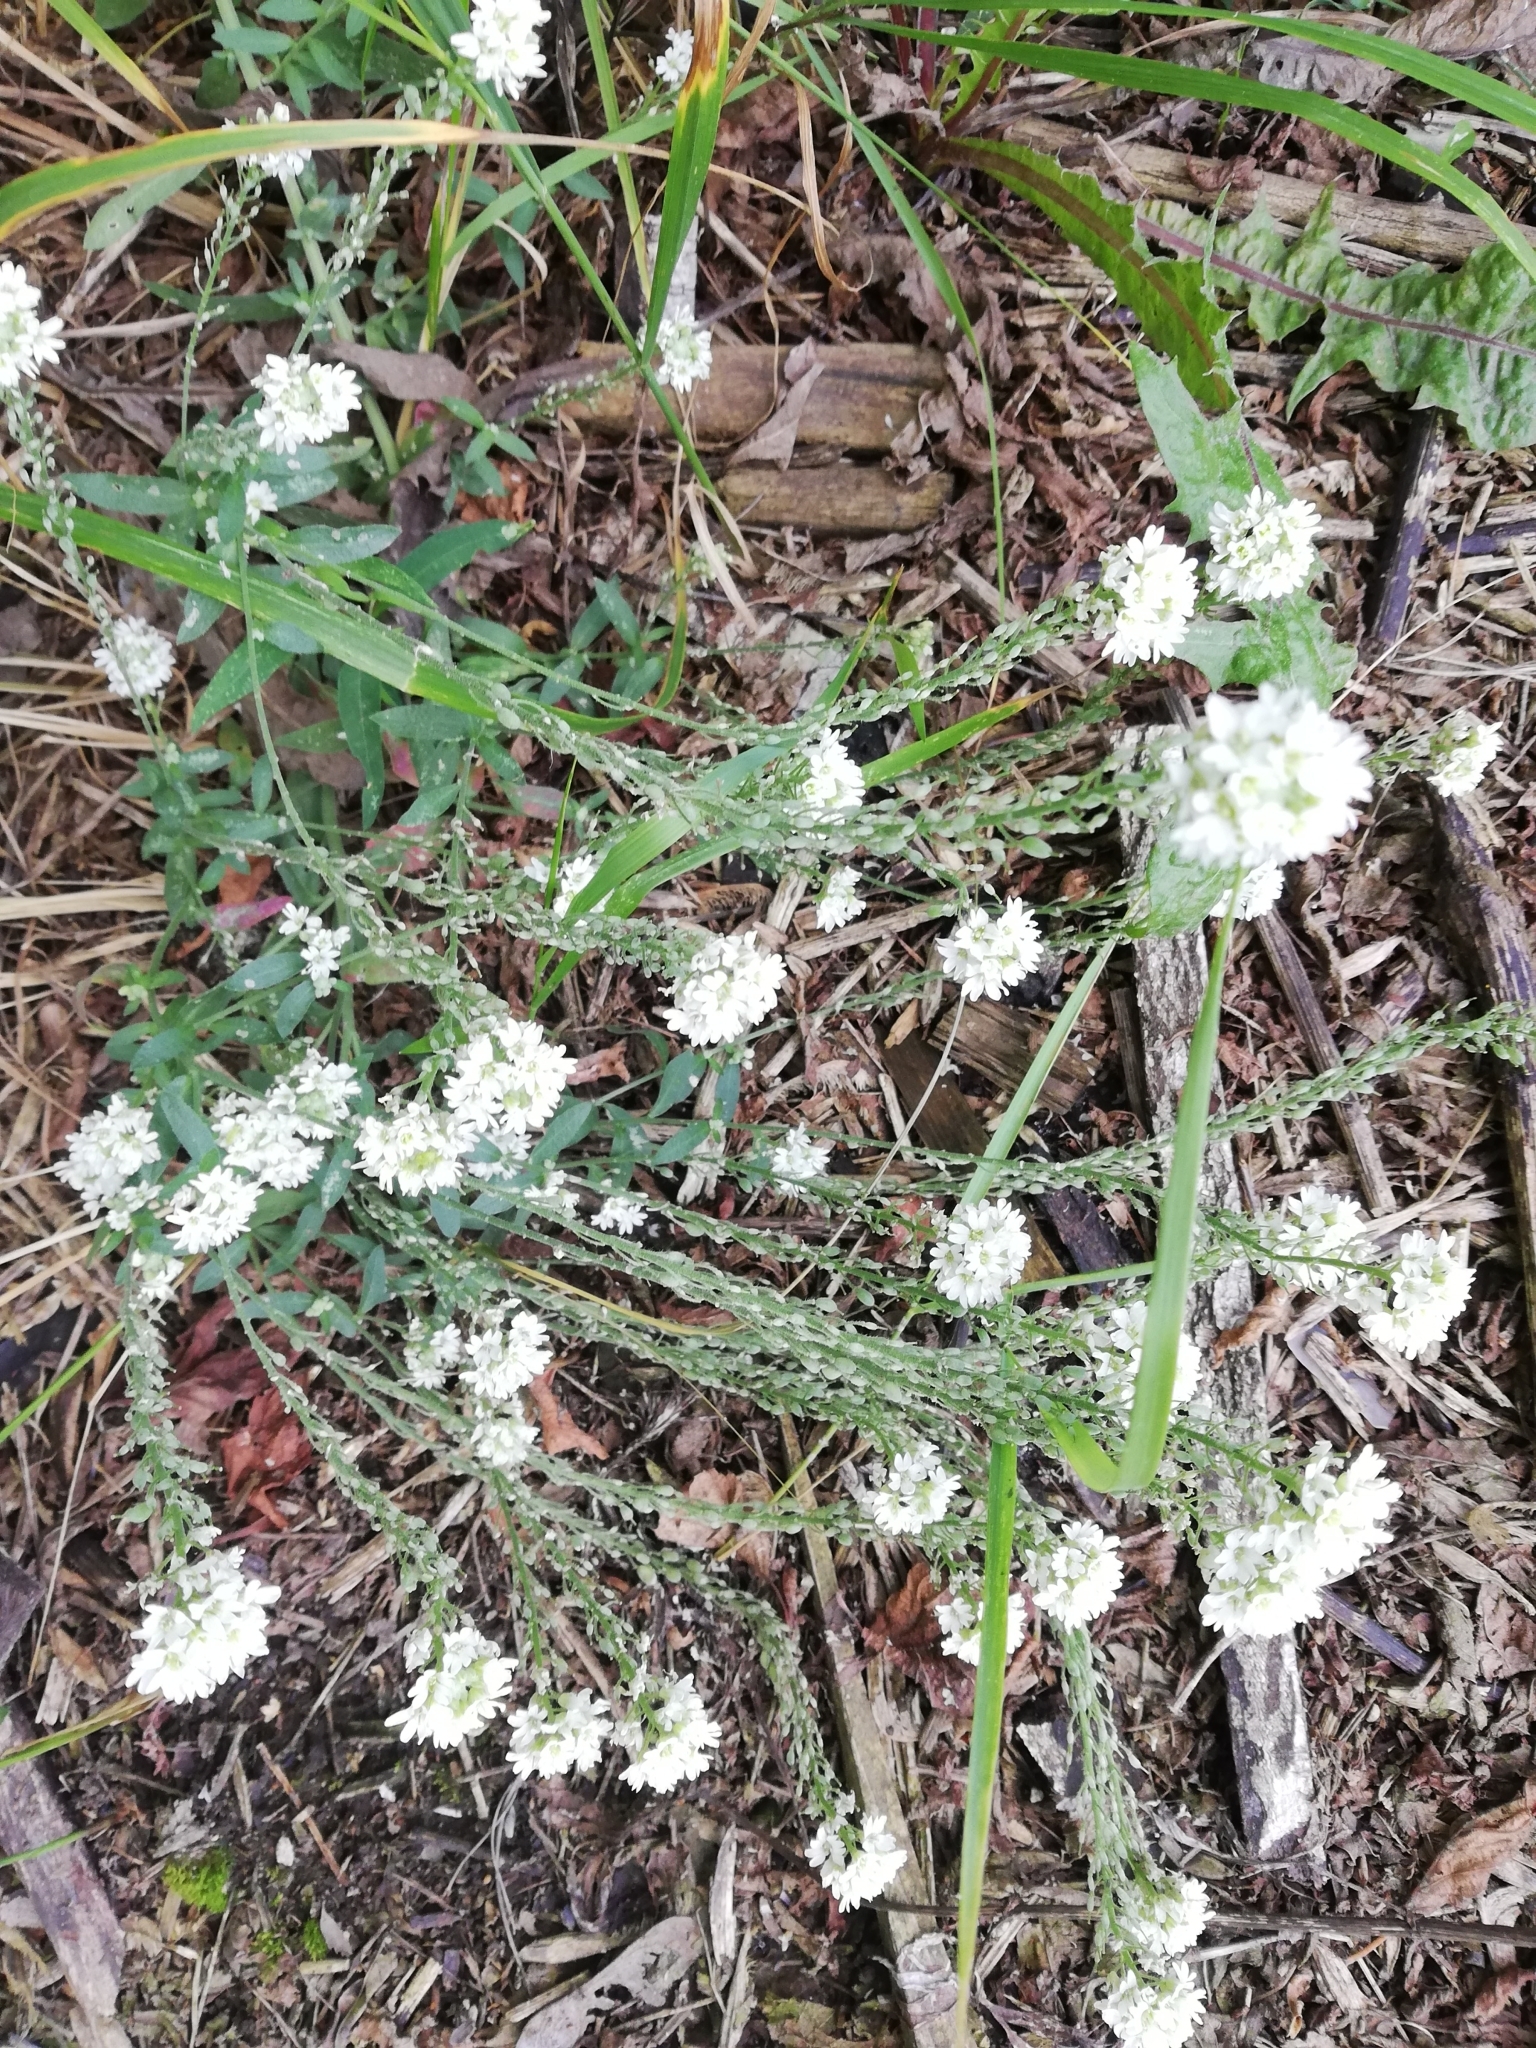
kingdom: Plantae
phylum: Tracheophyta
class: Magnoliopsida
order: Brassicales
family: Brassicaceae
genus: Berteroa
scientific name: Berteroa incana
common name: Hoary alison
